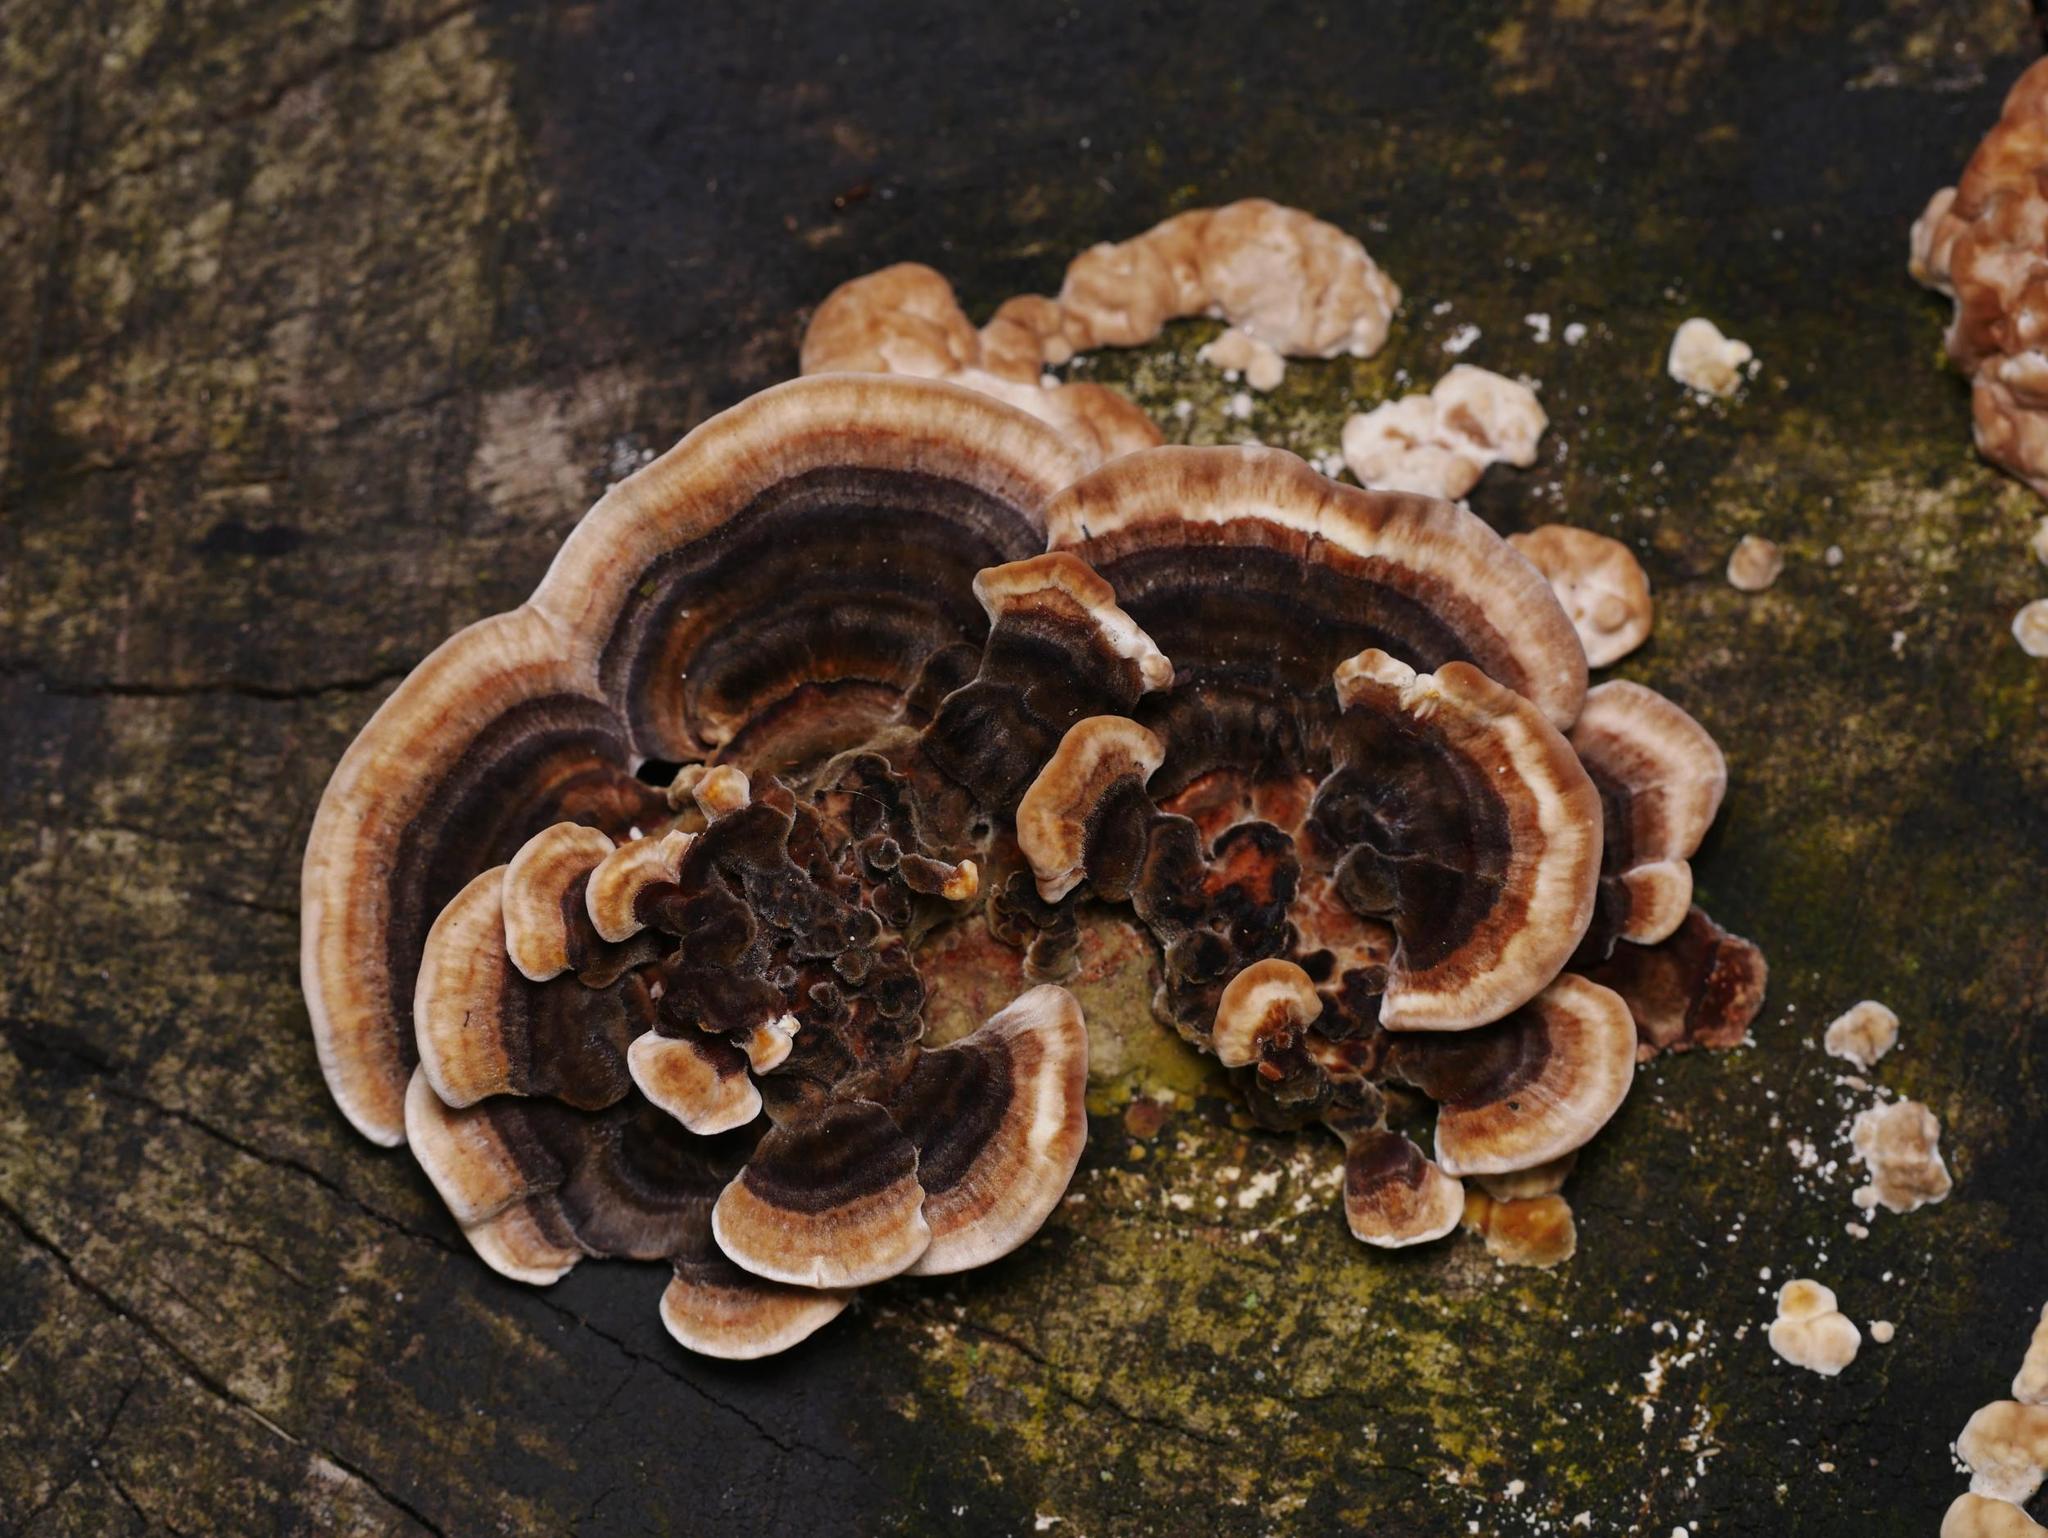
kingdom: Fungi
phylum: Basidiomycota
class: Agaricomycetes
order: Polyporales
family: Polyporaceae
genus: Trametes
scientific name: Trametes versicolor
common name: Turkeytail
